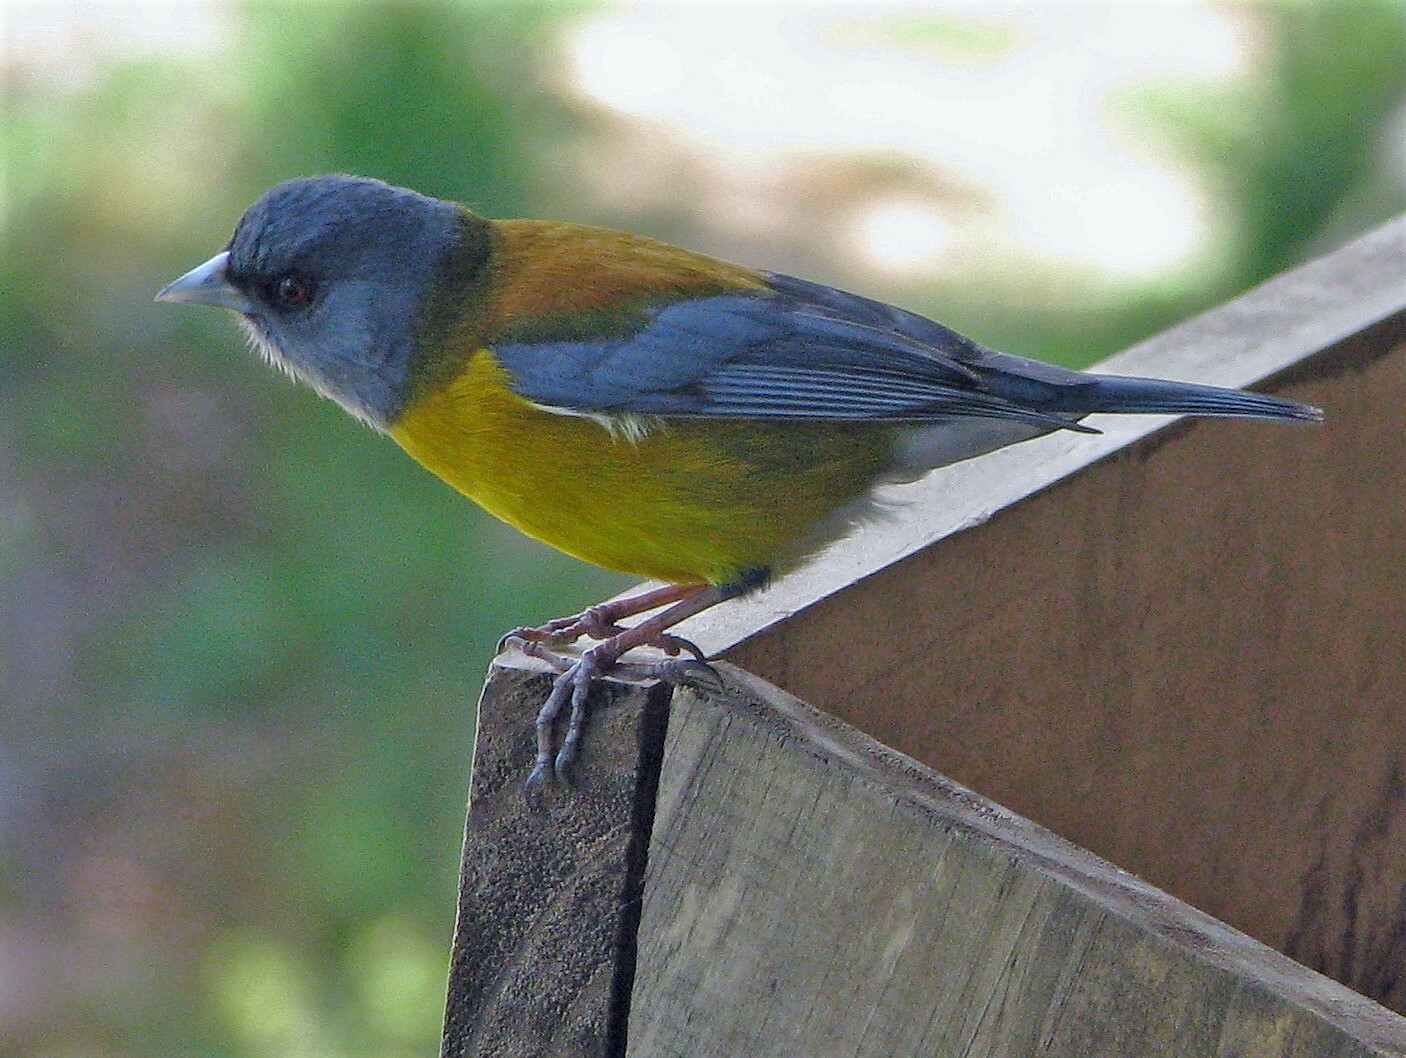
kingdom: Animalia
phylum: Chordata
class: Aves
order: Passeriformes
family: Thraupidae
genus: Phrygilus
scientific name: Phrygilus patagonicus
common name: Patagonian sierra finch
